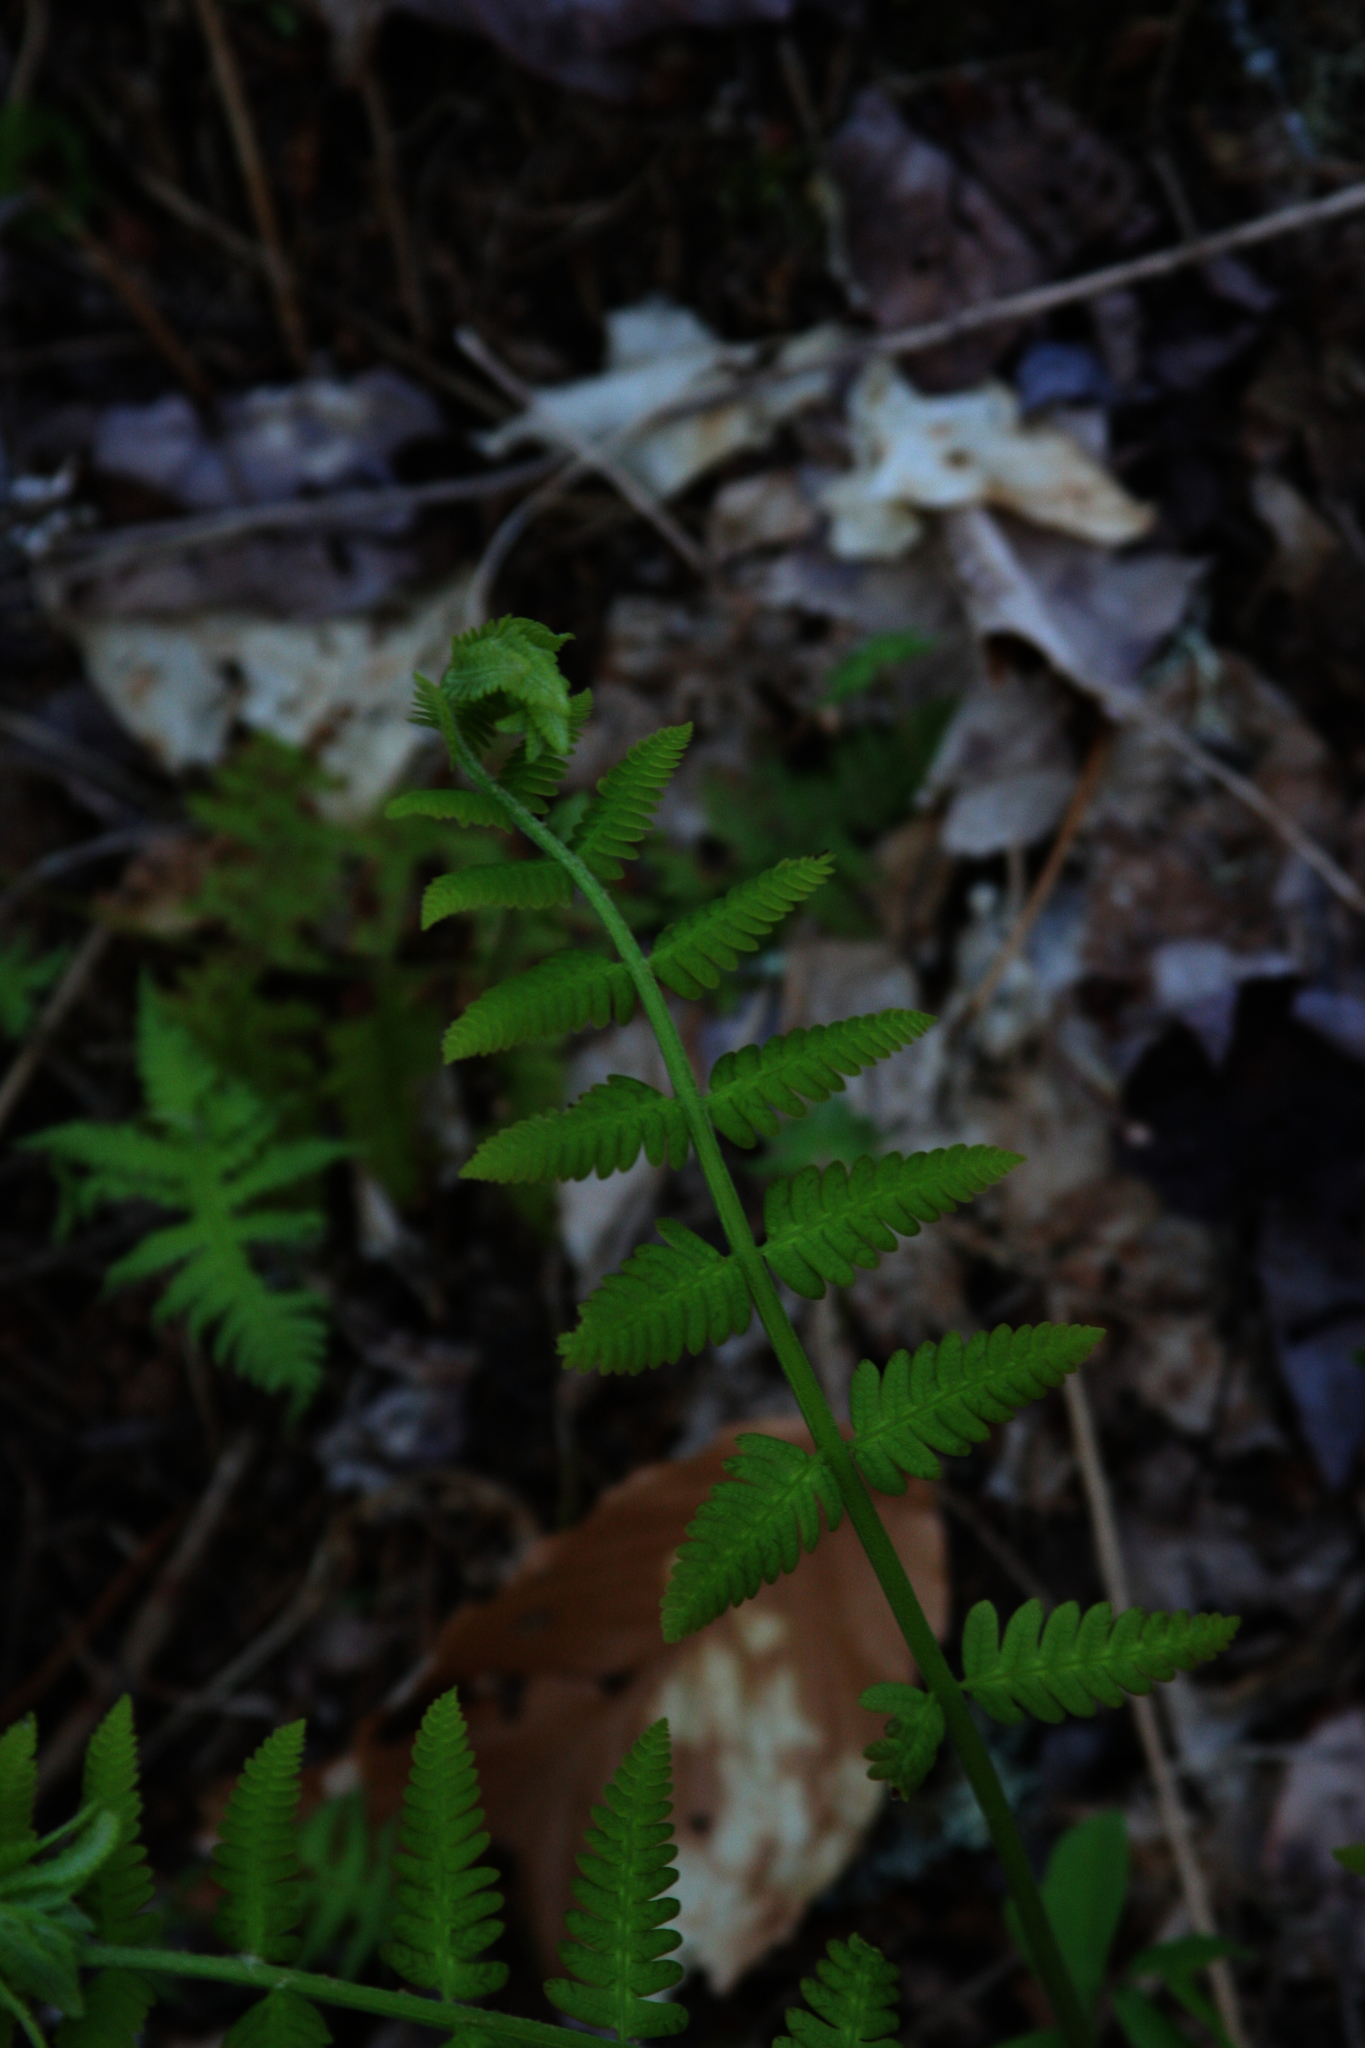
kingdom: Plantae
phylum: Tracheophyta
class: Polypodiopsida
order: Osmundales
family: Osmundaceae
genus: Claytosmunda
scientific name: Claytosmunda claytoniana
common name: Clayton's fern
